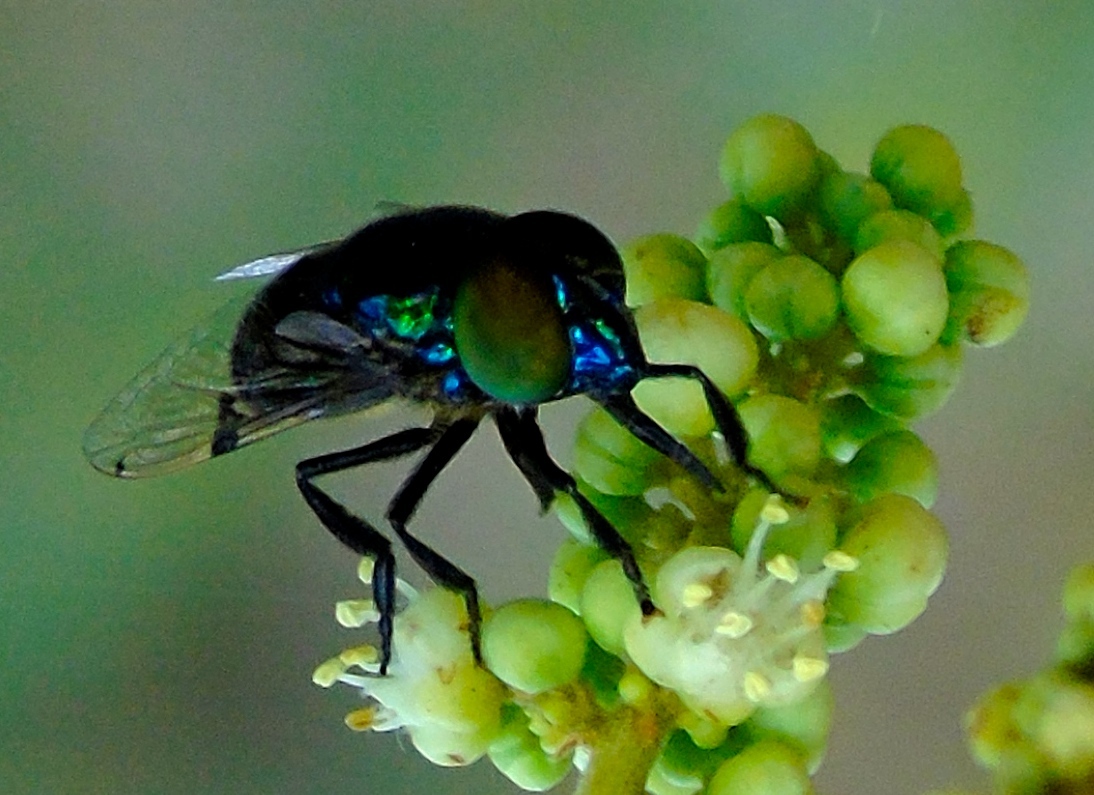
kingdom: Animalia
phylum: Arthropoda
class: Insecta
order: Diptera
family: Syrphidae
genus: Ornidia
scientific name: Ornidia
